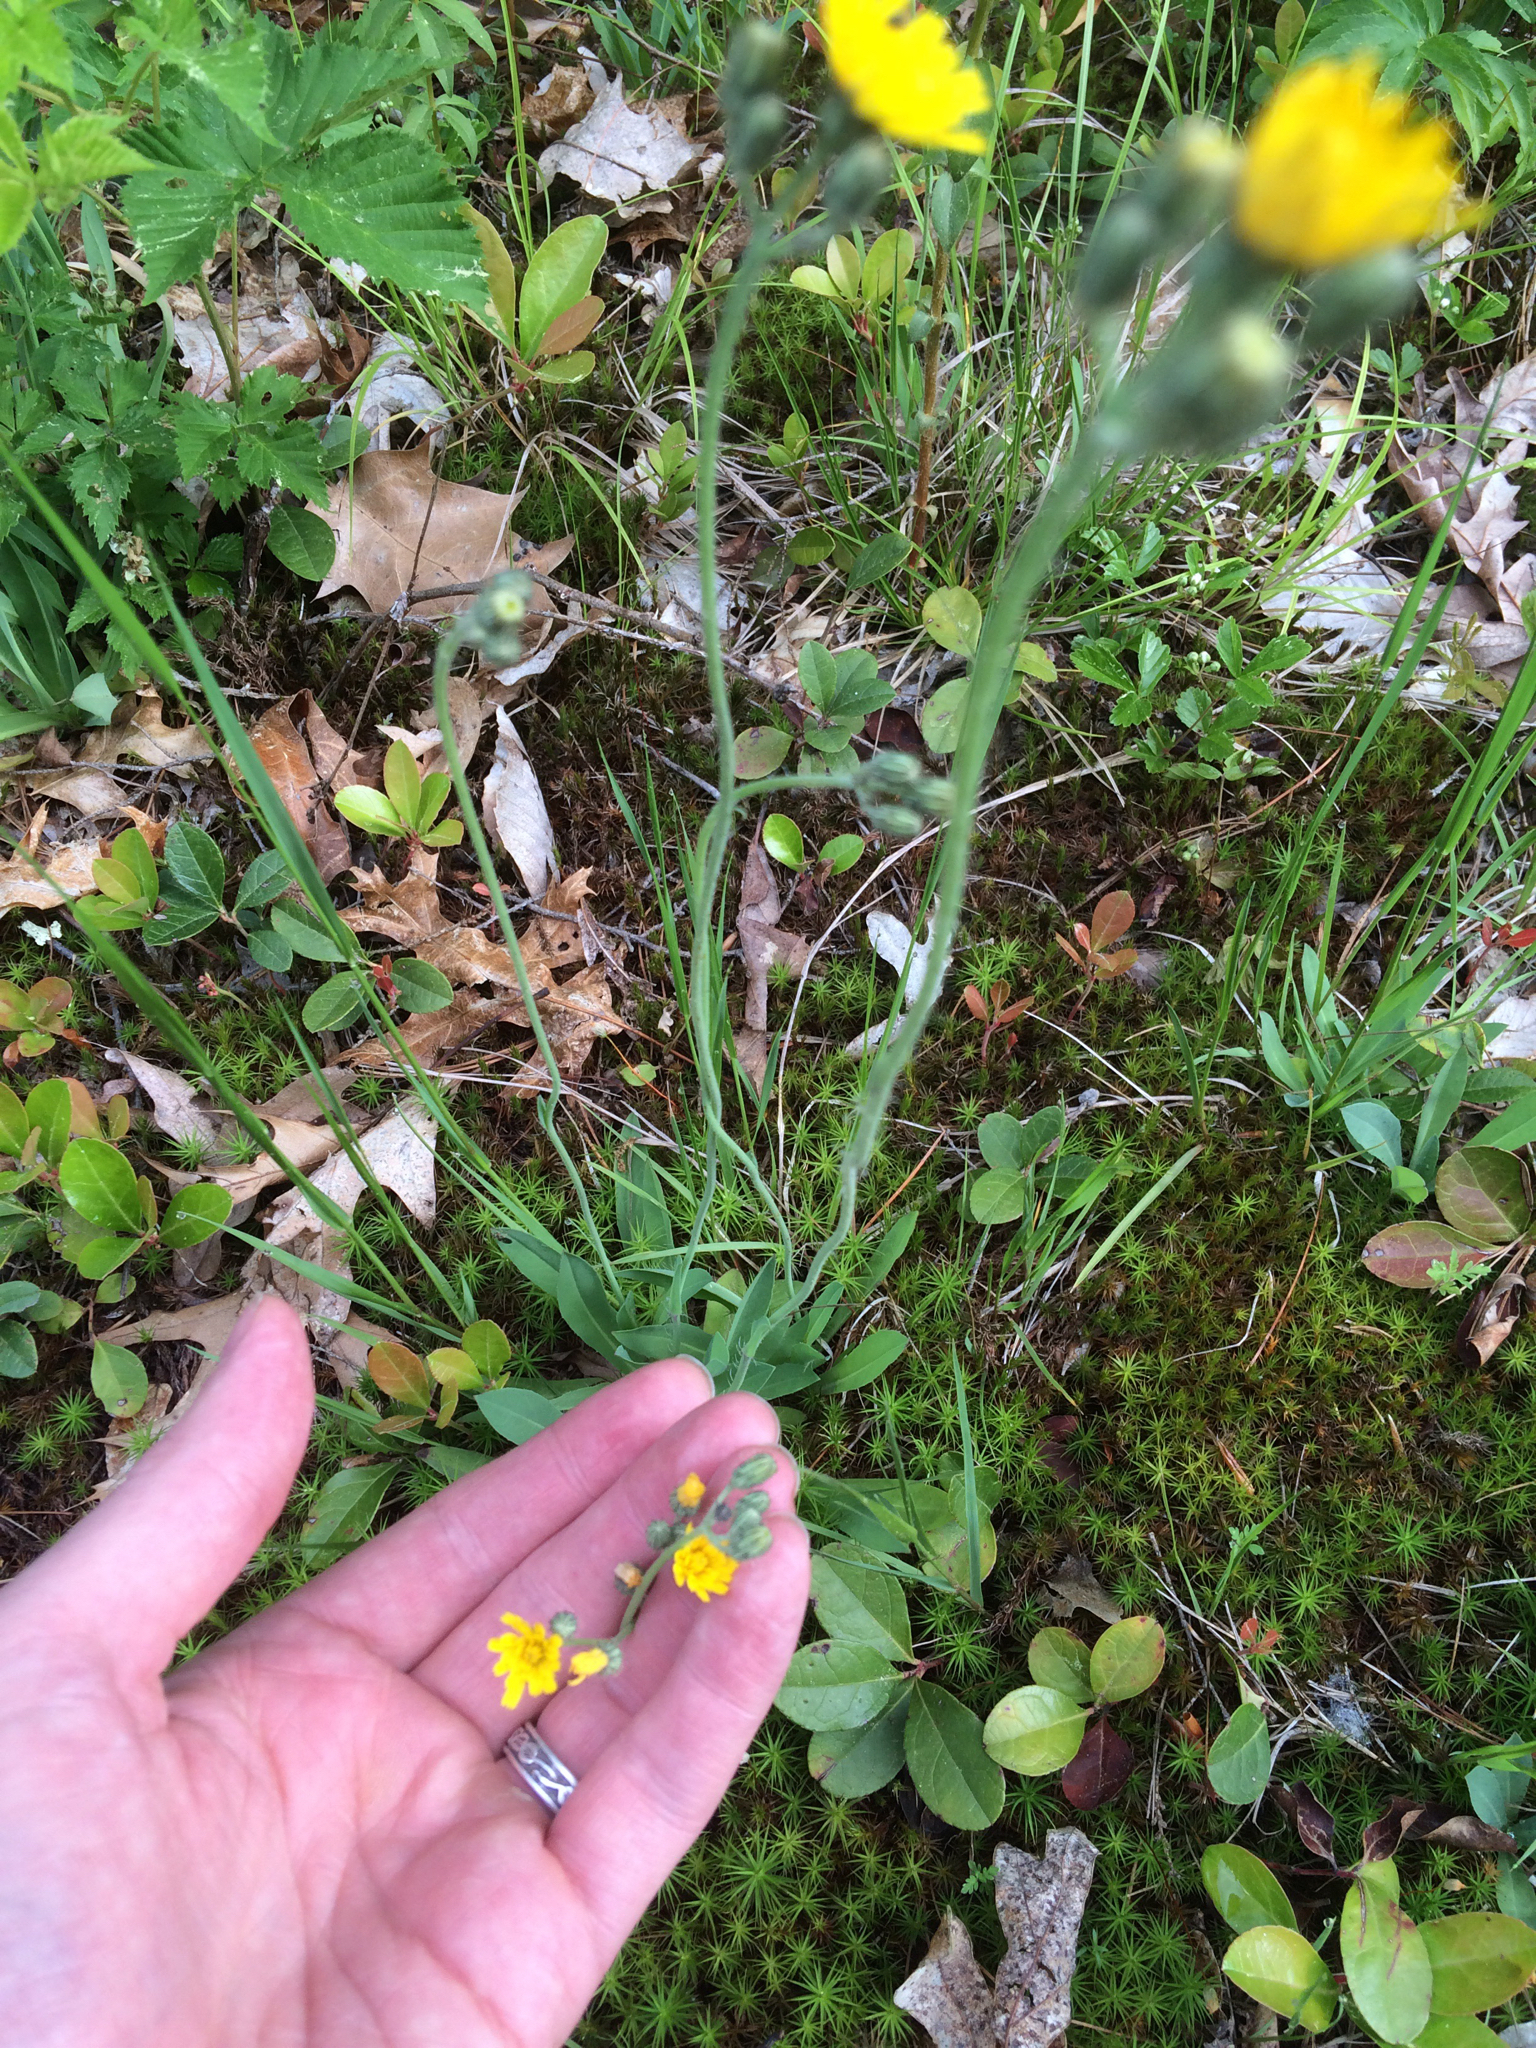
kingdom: Plantae
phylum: Tracheophyta
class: Magnoliopsida
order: Asterales
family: Asteraceae
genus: Pilosella
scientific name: Pilosella caespitosa
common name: Yellow fox-and-cubs
